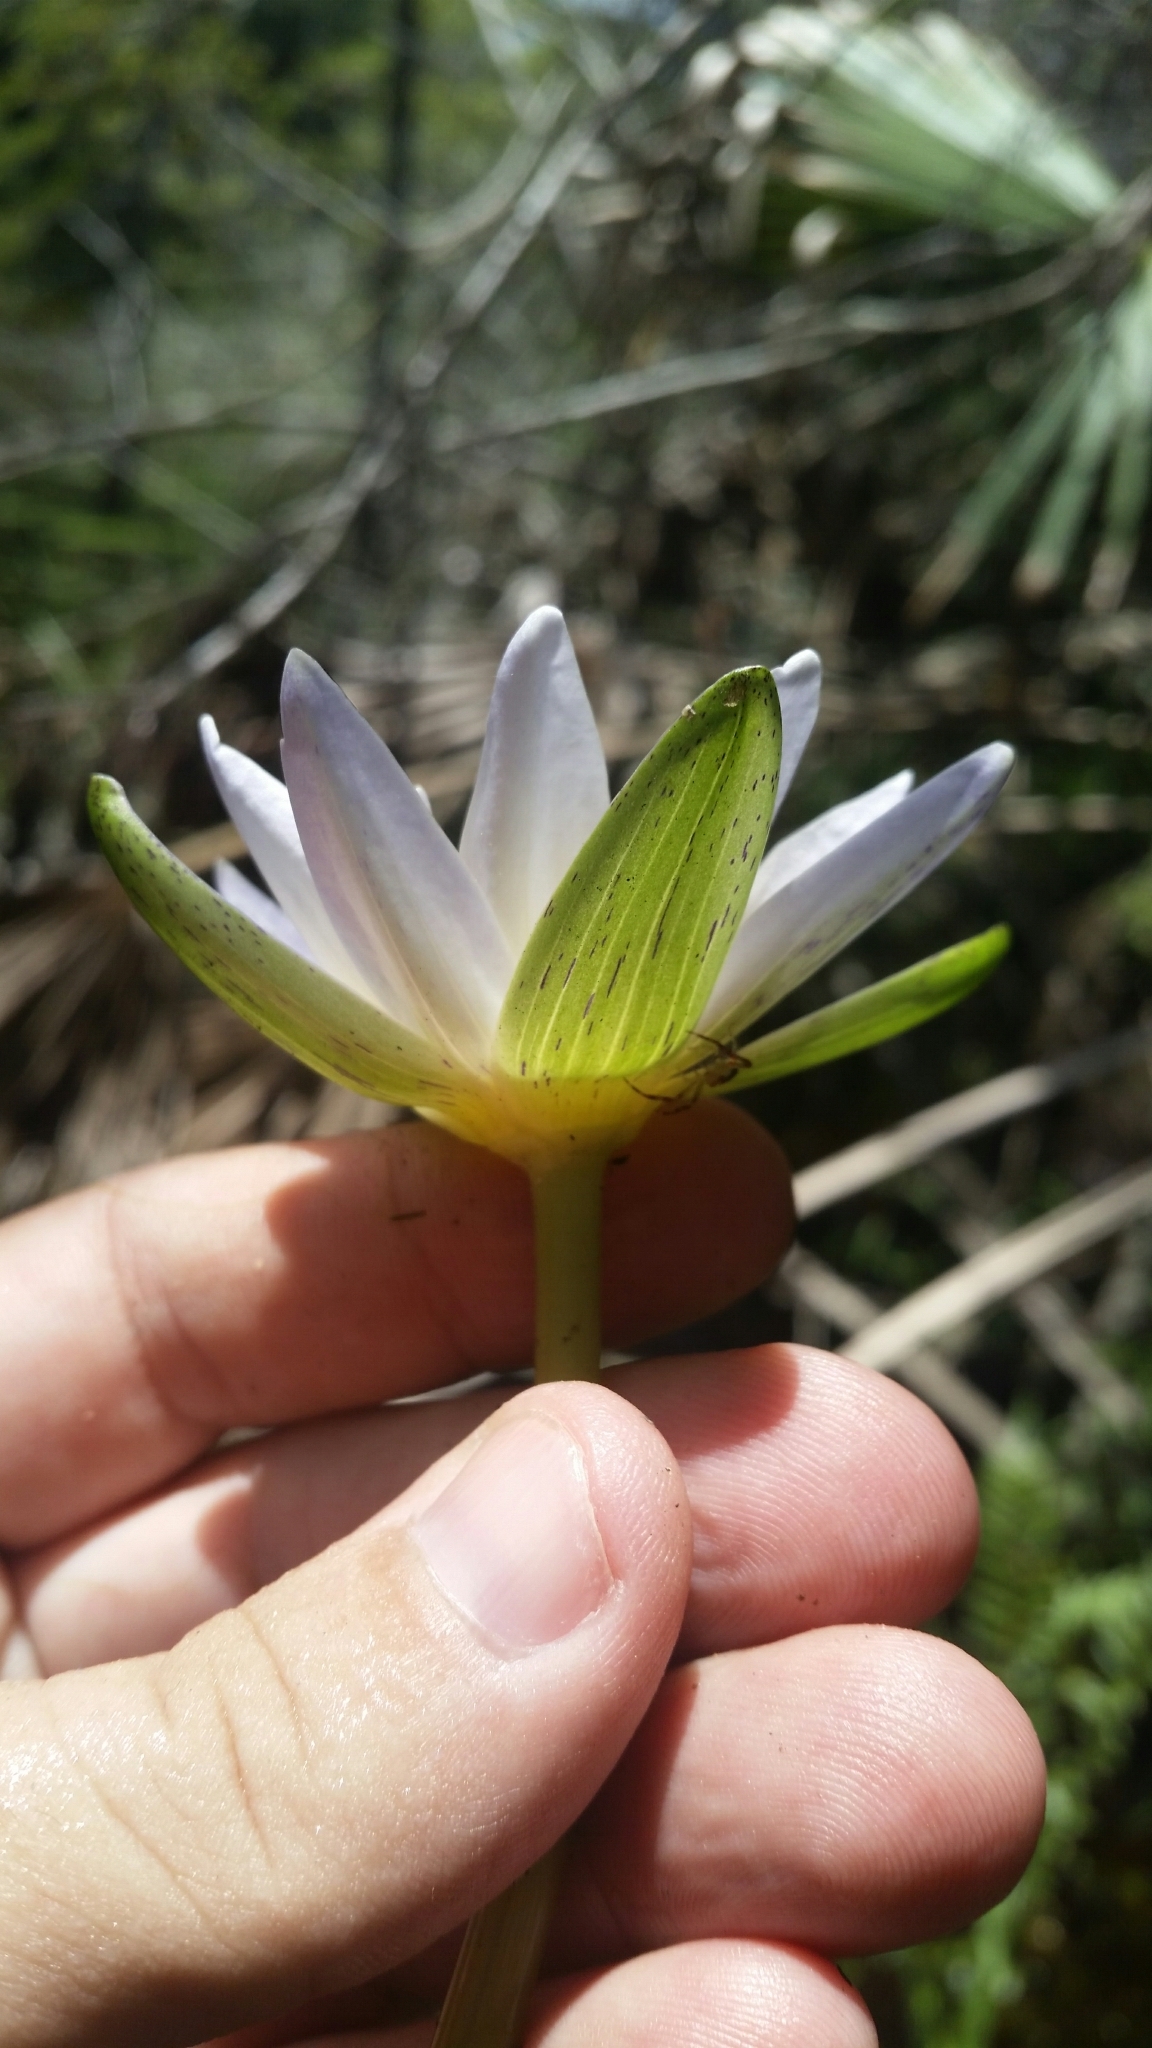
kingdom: Plantae
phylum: Tracheophyta
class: Magnoliopsida
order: Nymphaeales
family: Nymphaeaceae
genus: Nymphaea
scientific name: Nymphaea elegans
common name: Blue water-lily
